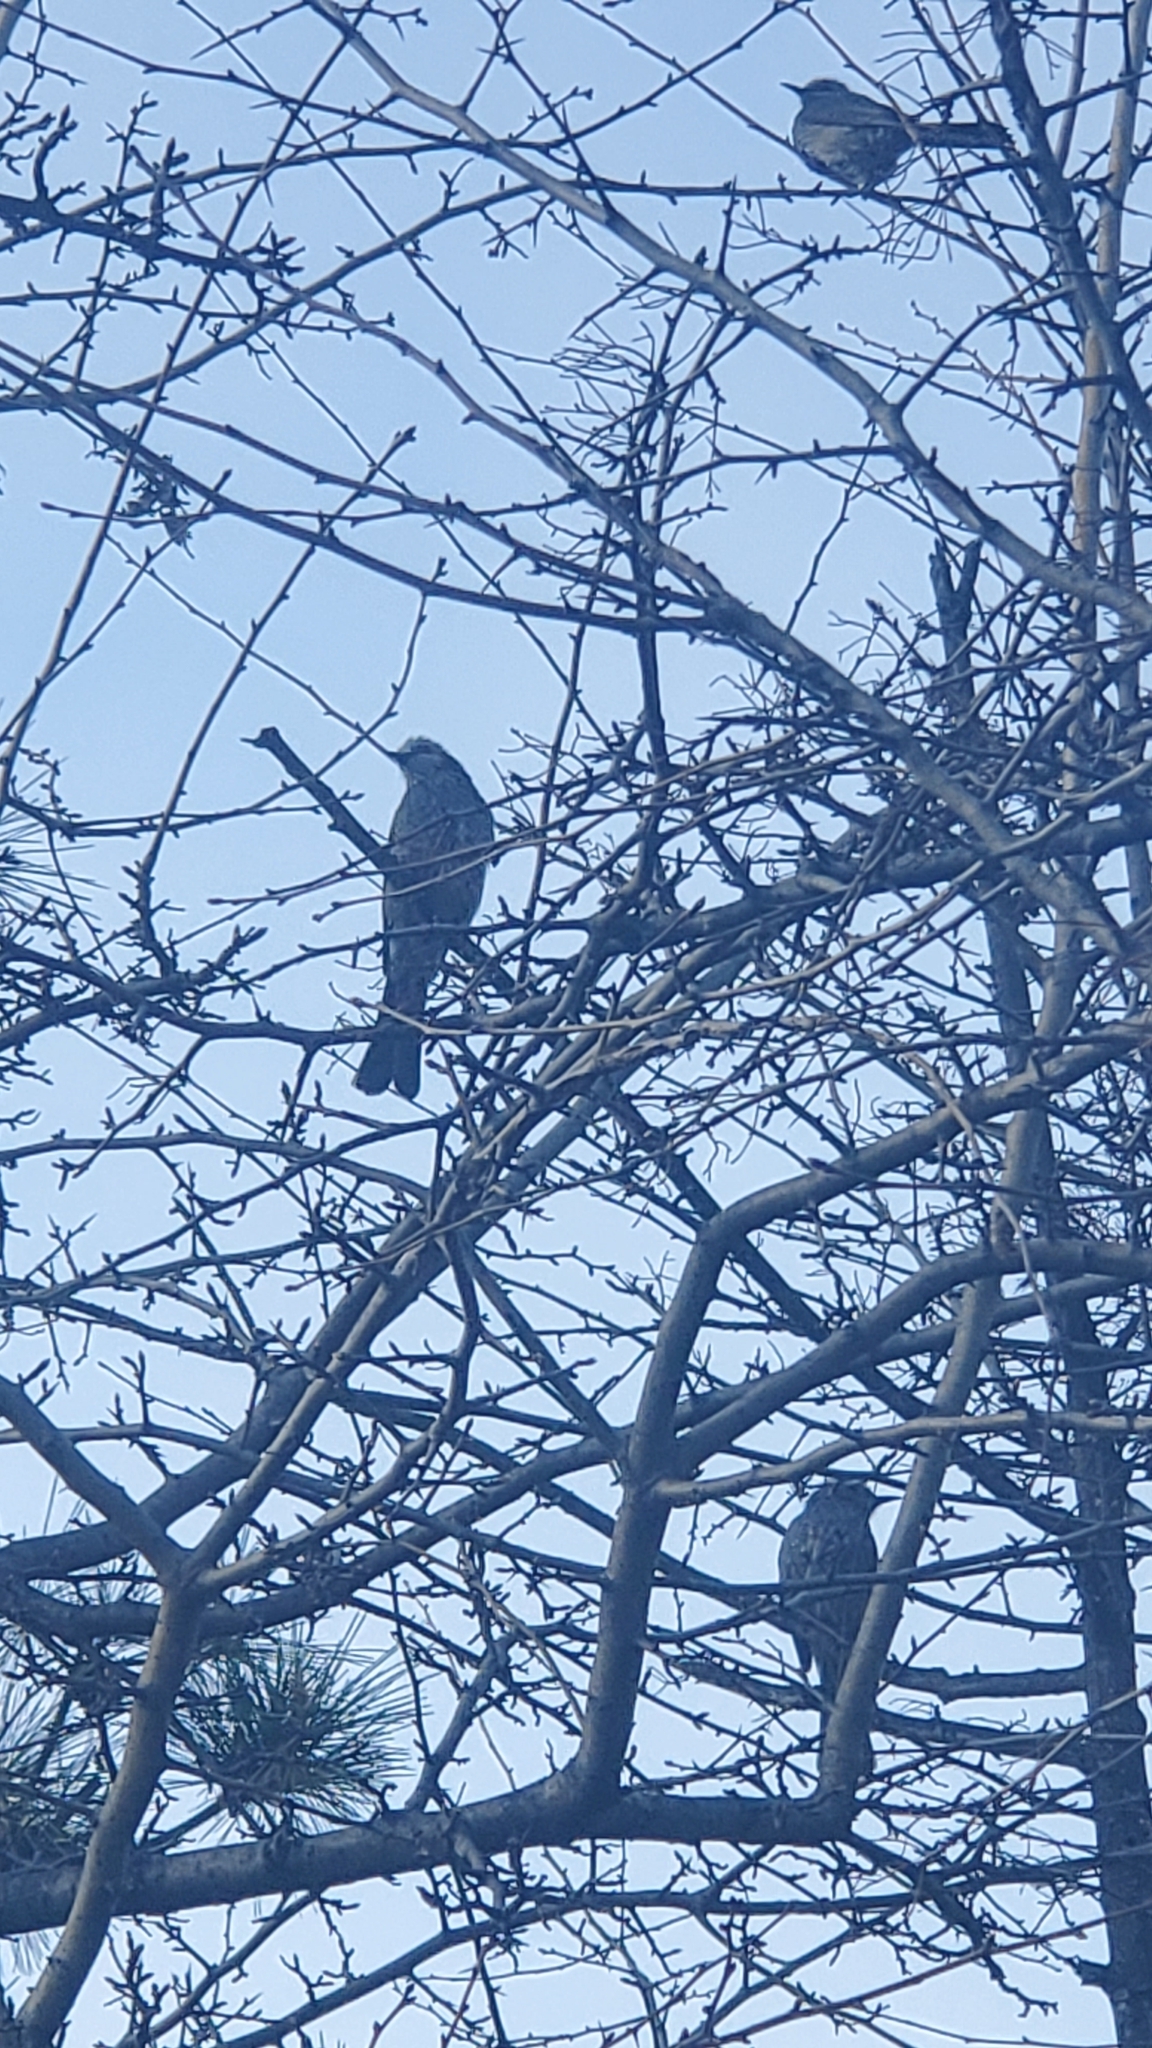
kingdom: Animalia
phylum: Chordata
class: Aves
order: Passeriformes
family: Pycnonotidae
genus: Hypsipetes
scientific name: Hypsipetes amaurotis
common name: Brown-eared bulbul
